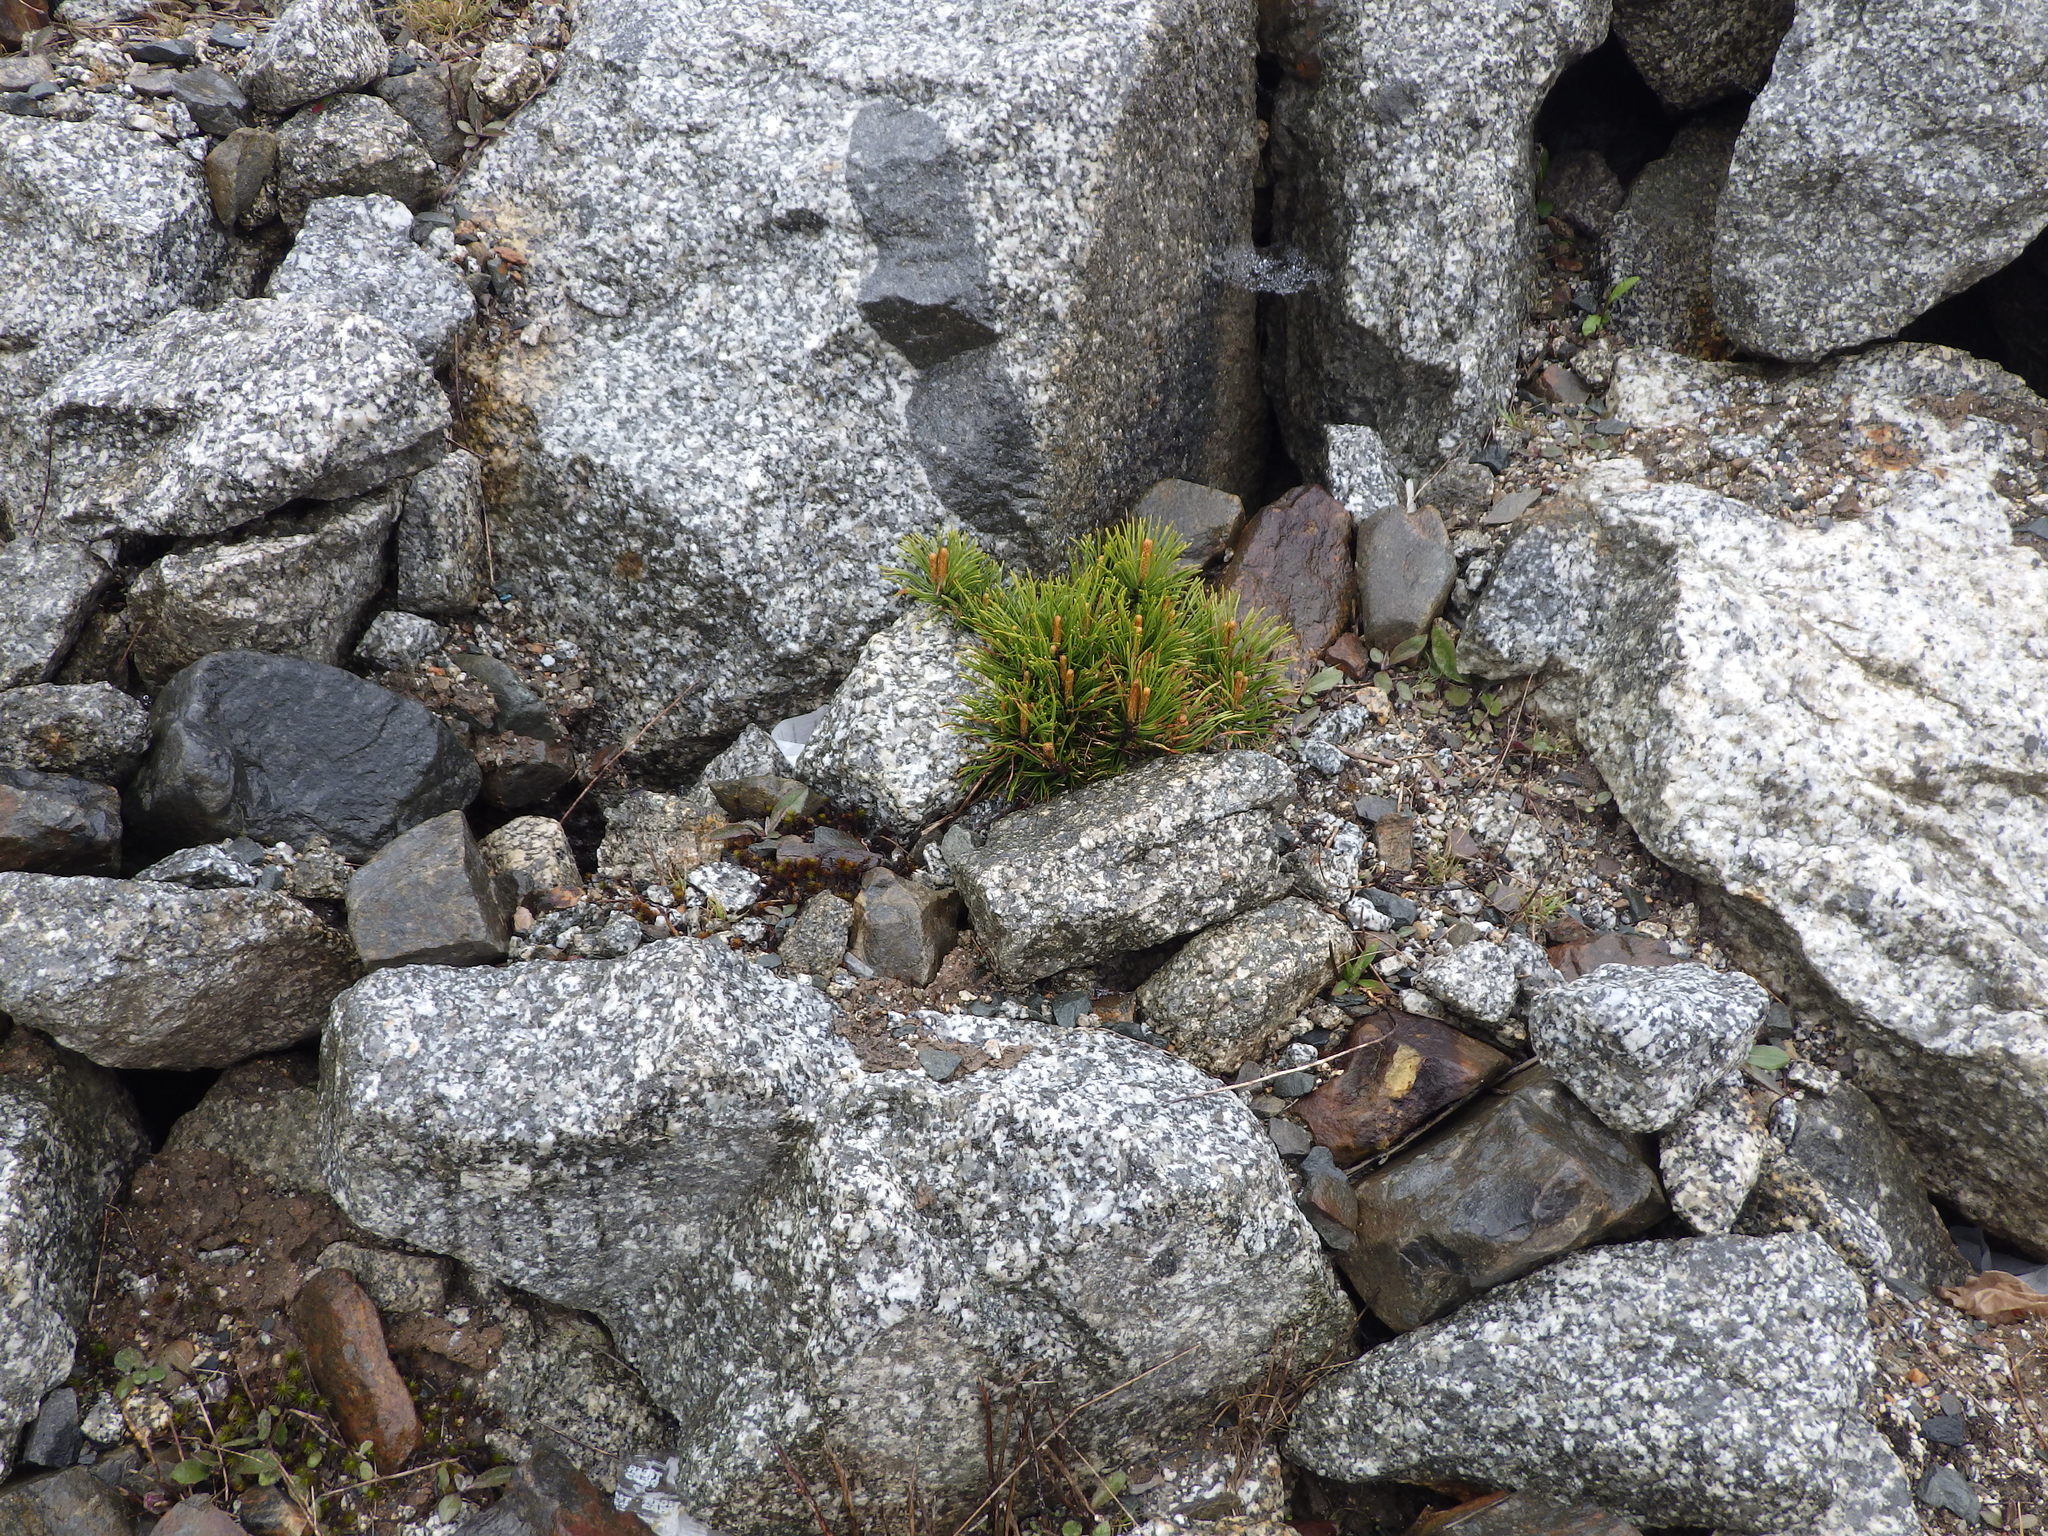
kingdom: Plantae
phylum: Tracheophyta
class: Pinopsida
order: Pinales
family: Pinaceae
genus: Pinus
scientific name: Pinus banksiana
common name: Jack pine
